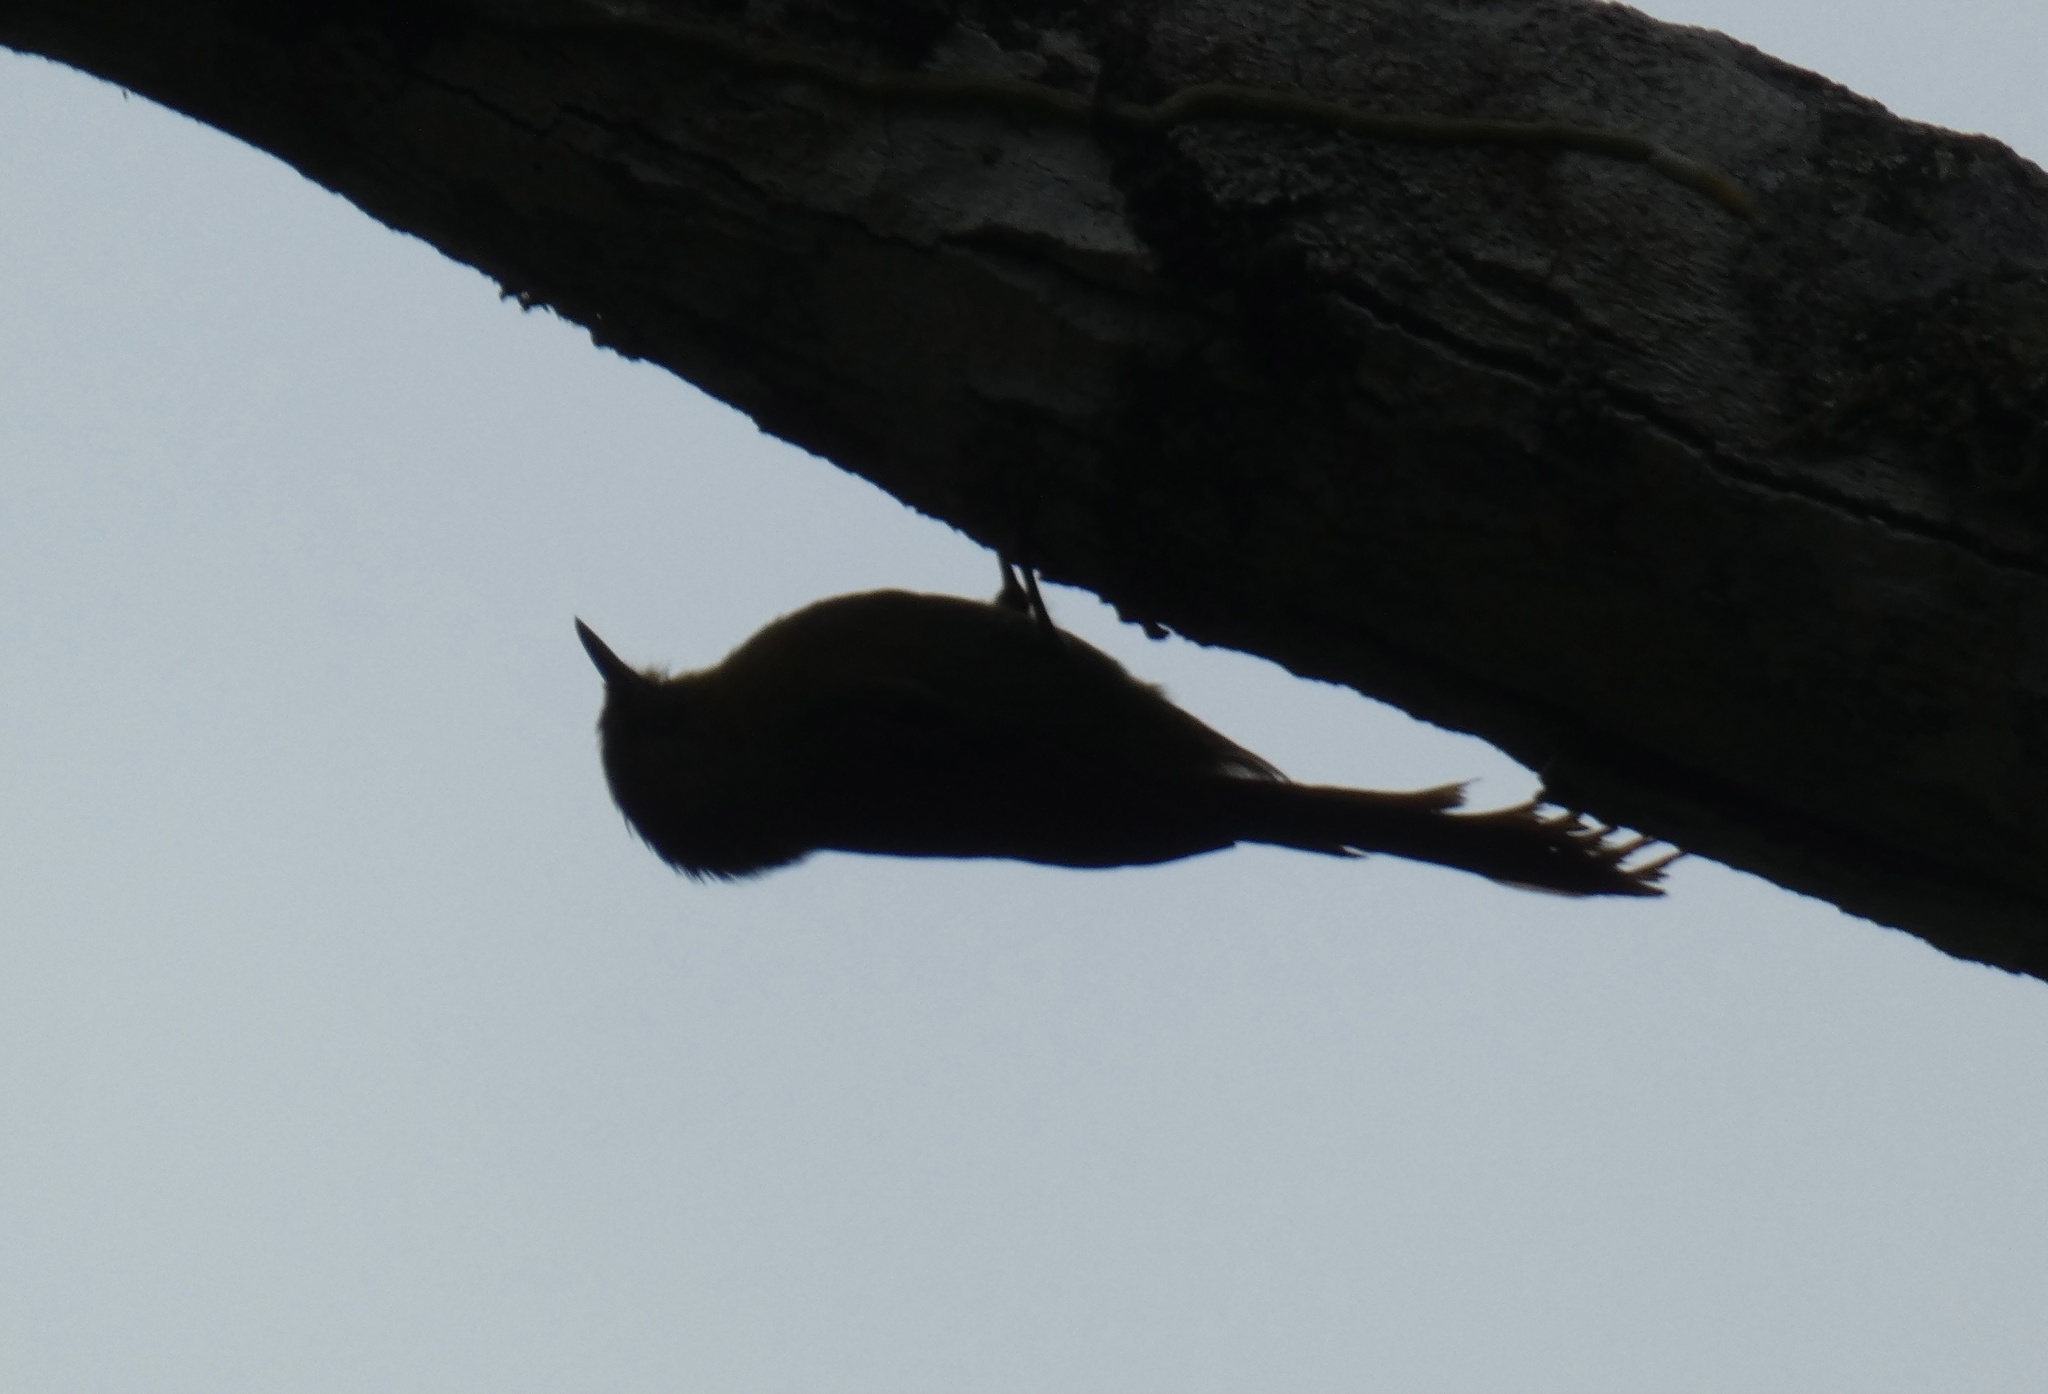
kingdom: Animalia
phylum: Chordata
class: Aves
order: Passeriformes
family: Furnariidae
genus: Sittasomus
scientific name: Sittasomus griseicapillus
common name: Olivaceous woodcreeper
